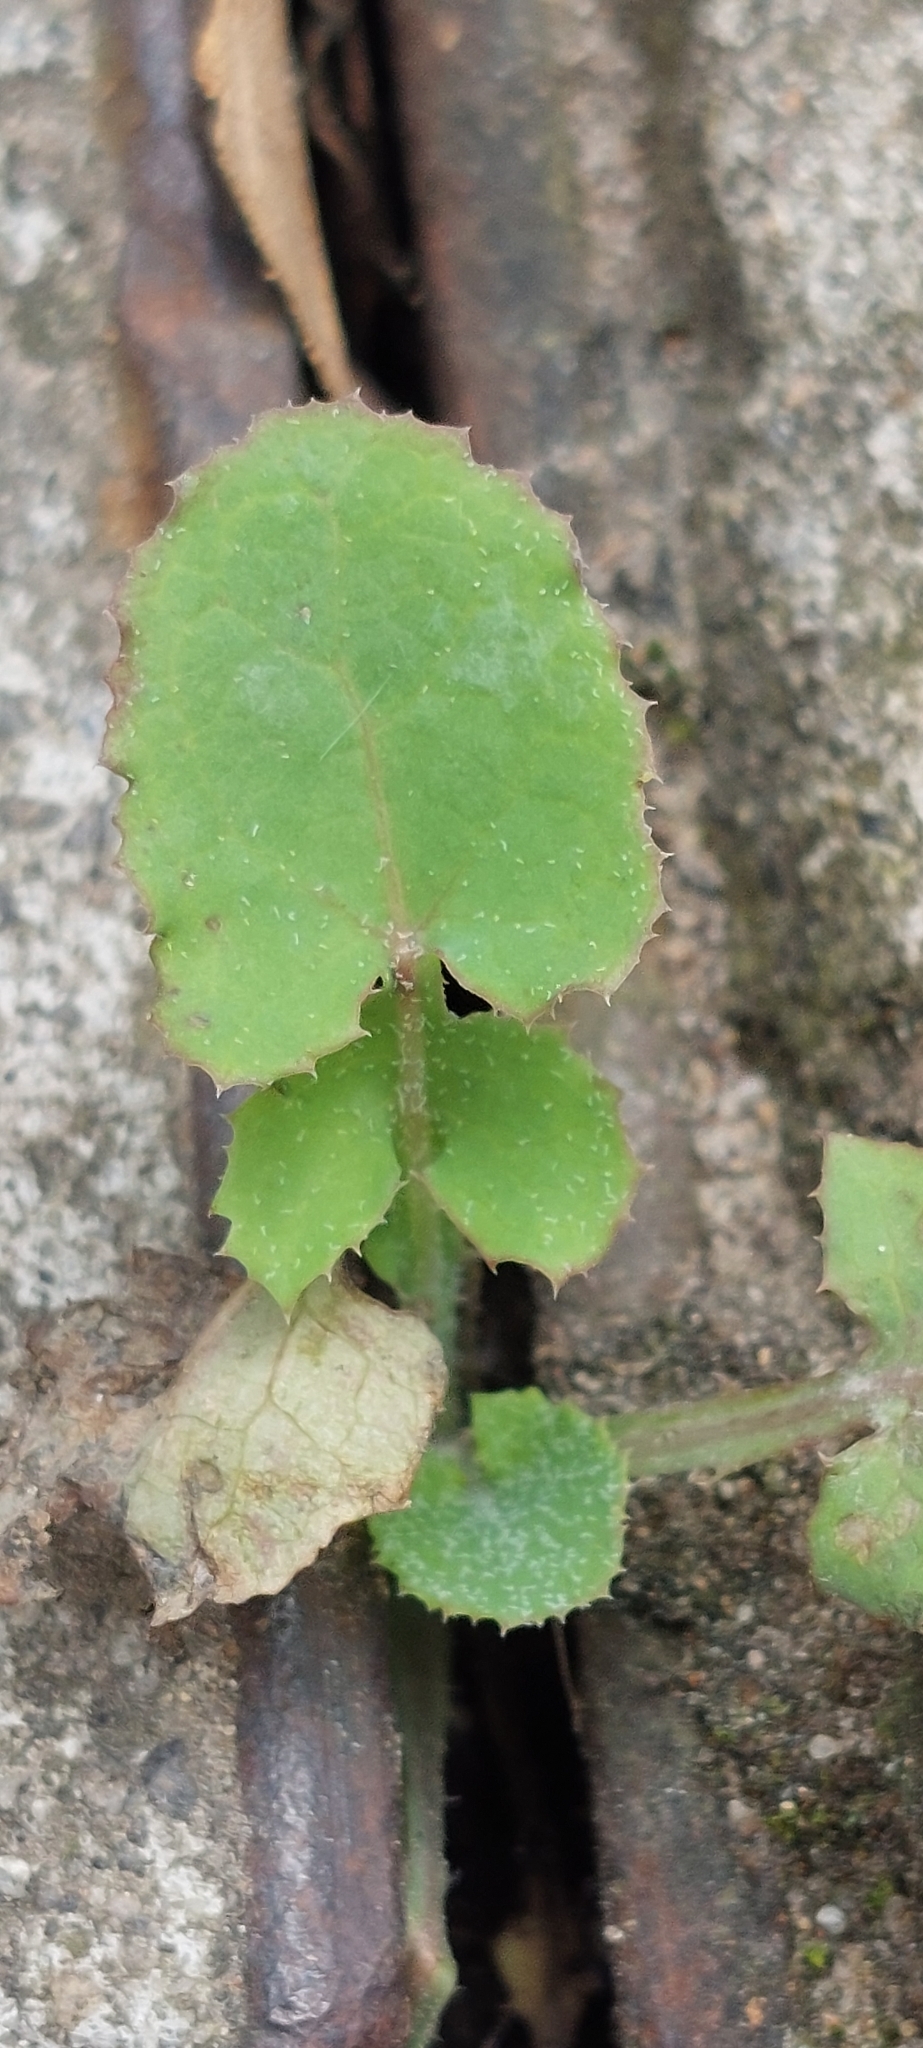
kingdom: Plantae
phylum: Tracheophyta
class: Magnoliopsida
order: Asterales
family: Asteraceae
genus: Sonchus
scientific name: Sonchus oleraceus
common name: Common sowthistle
